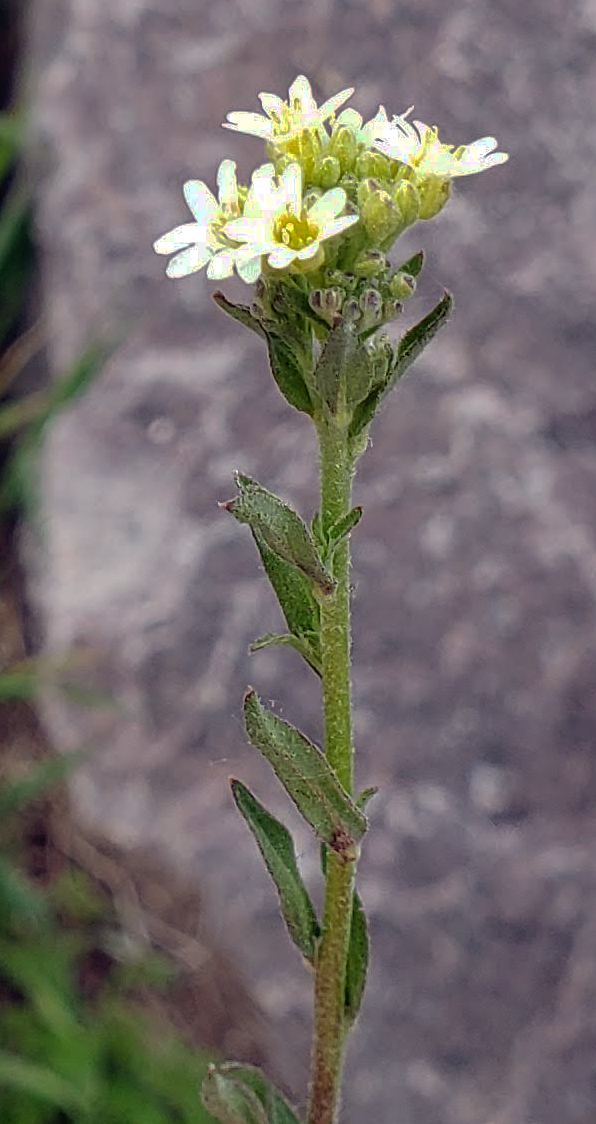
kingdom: Plantae
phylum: Tracheophyta
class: Magnoliopsida
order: Brassicales
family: Brassicaceae
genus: Berteroa
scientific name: Berteroa incana
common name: Hoary alison
